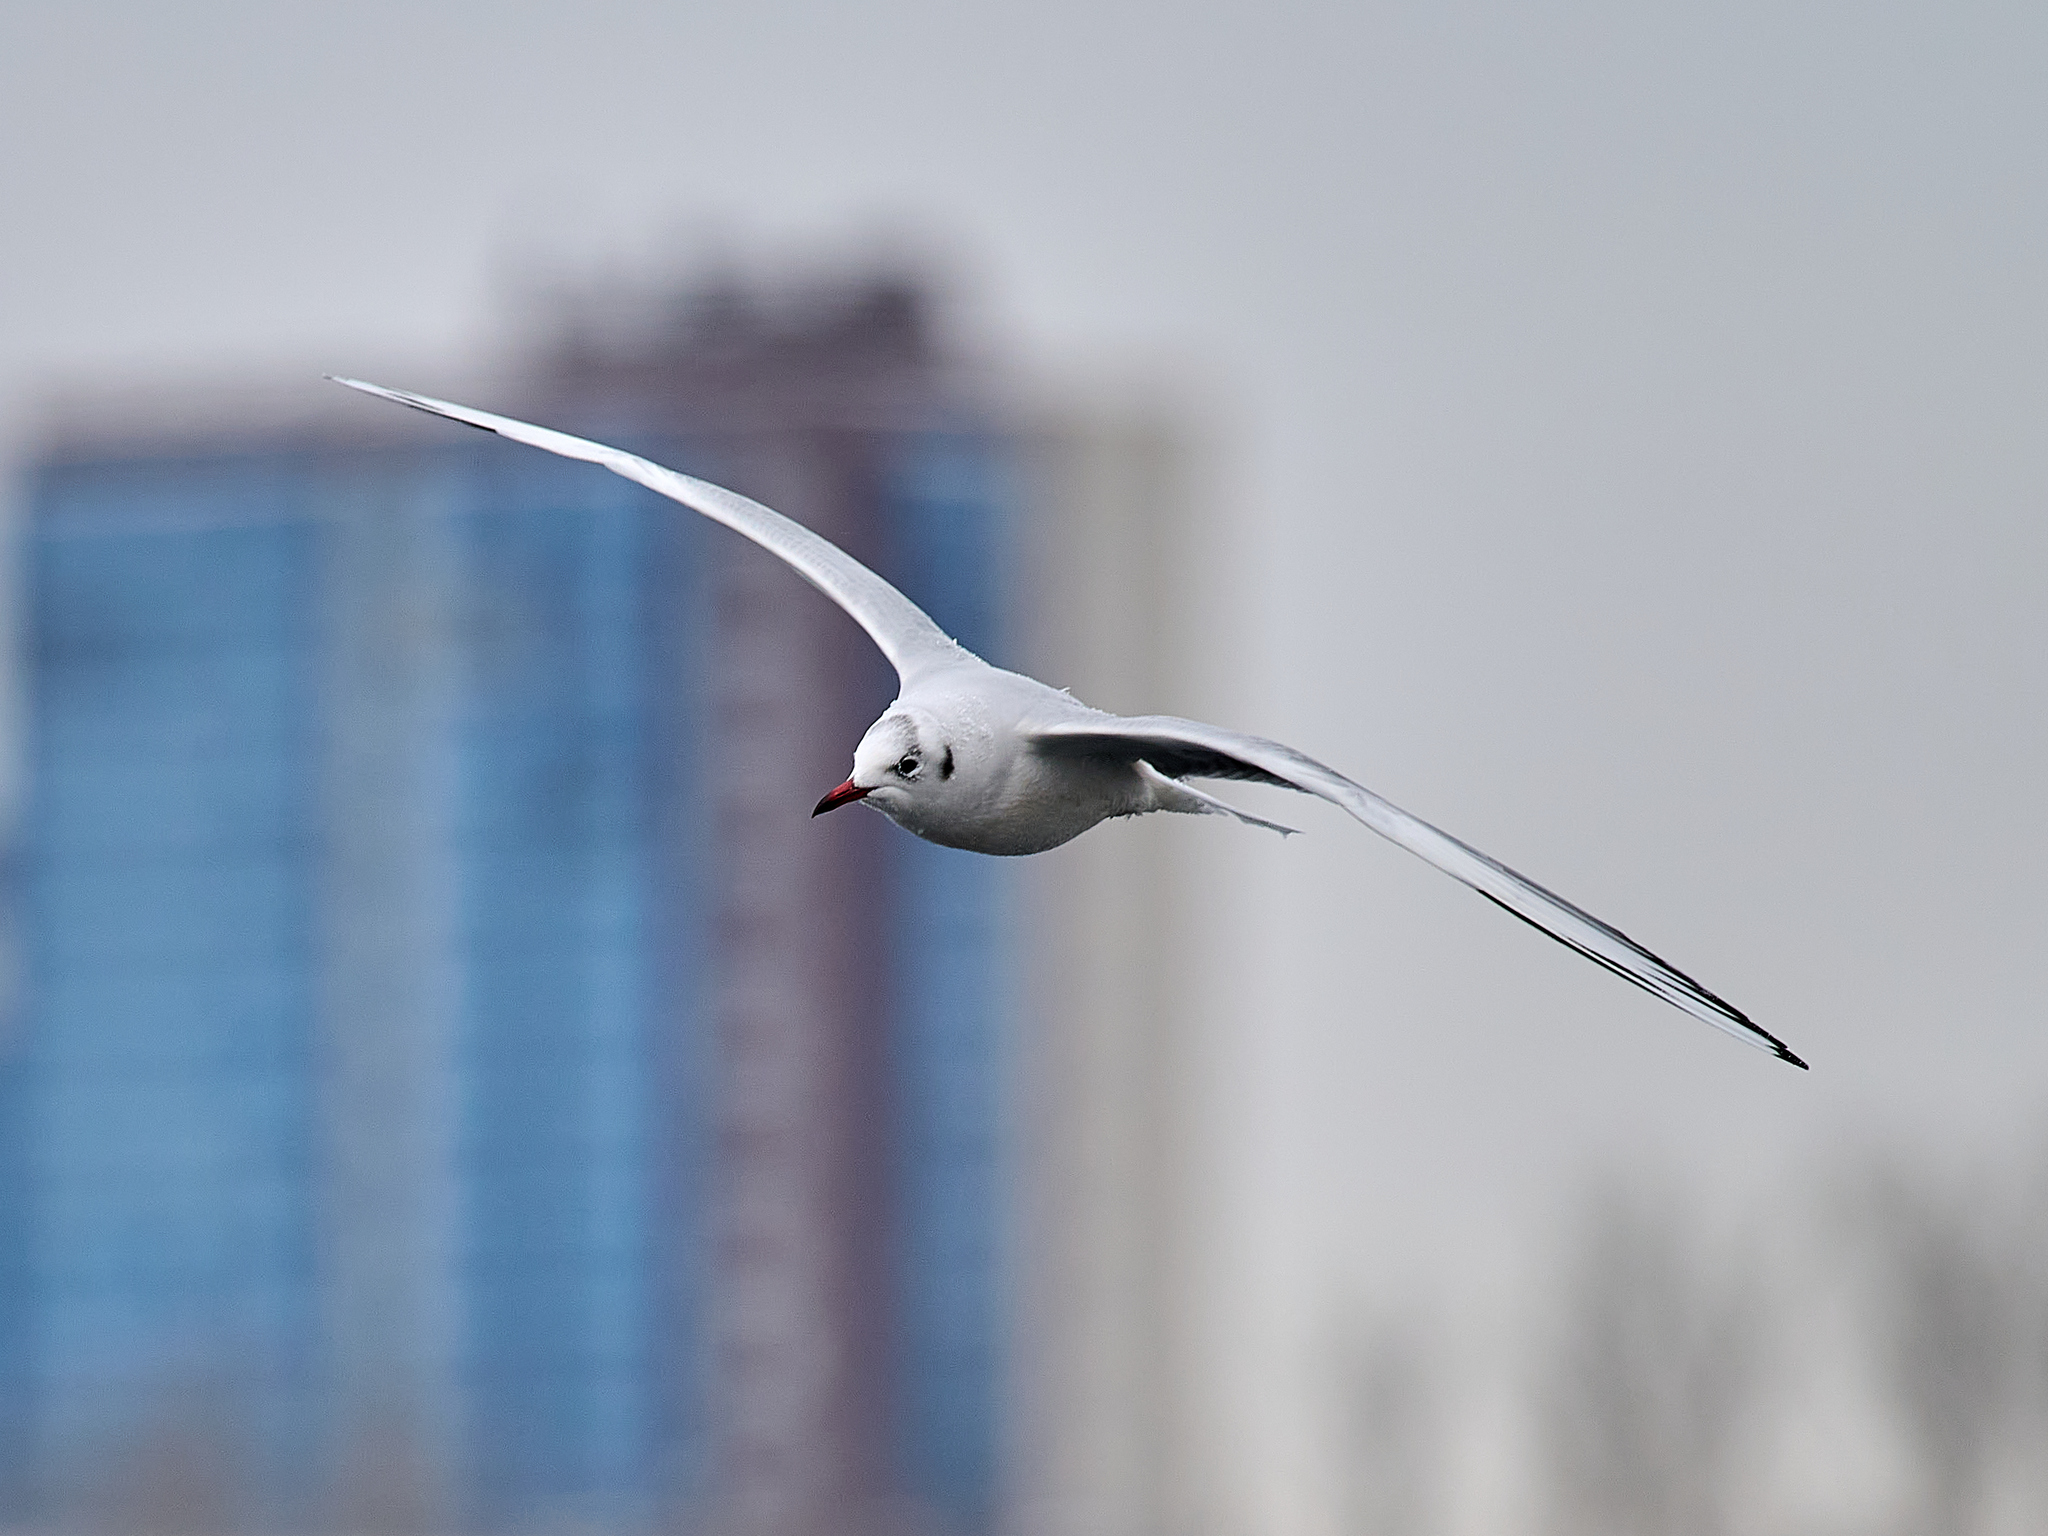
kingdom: Animalia
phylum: Chordata
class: Aves
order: Charadriiformes
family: Laridae
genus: Chroicocephalus
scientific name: Chroicocephalus ridibundus
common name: Black-headed gull
